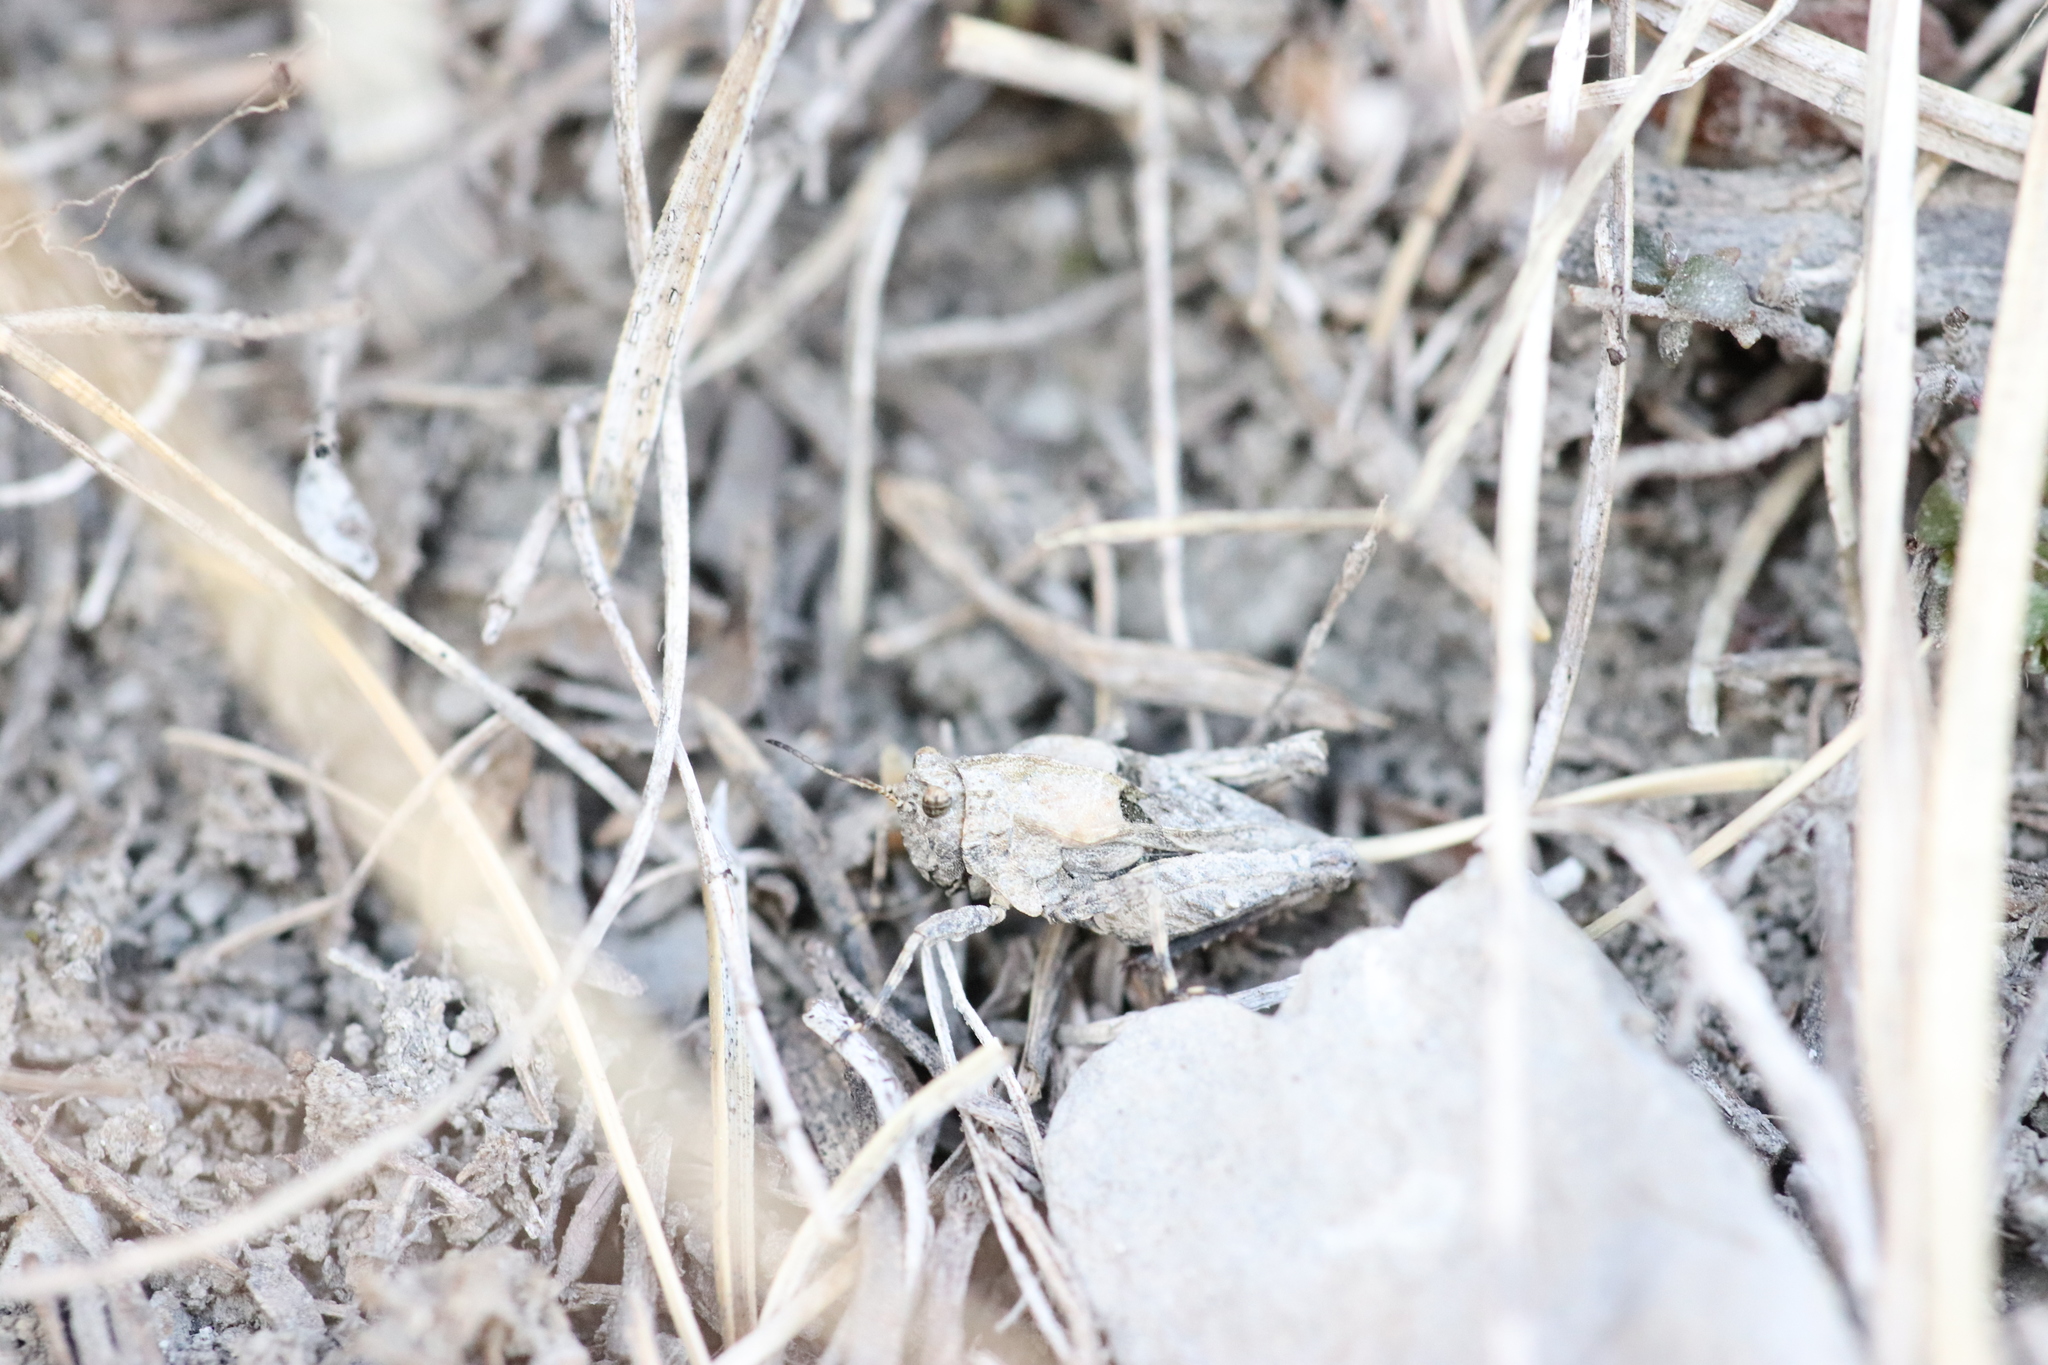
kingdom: Animalia
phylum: Arthropoda
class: Insecta
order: Orthoptera
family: Tetrigidae
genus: Tetrix
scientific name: Tetrix depressa
